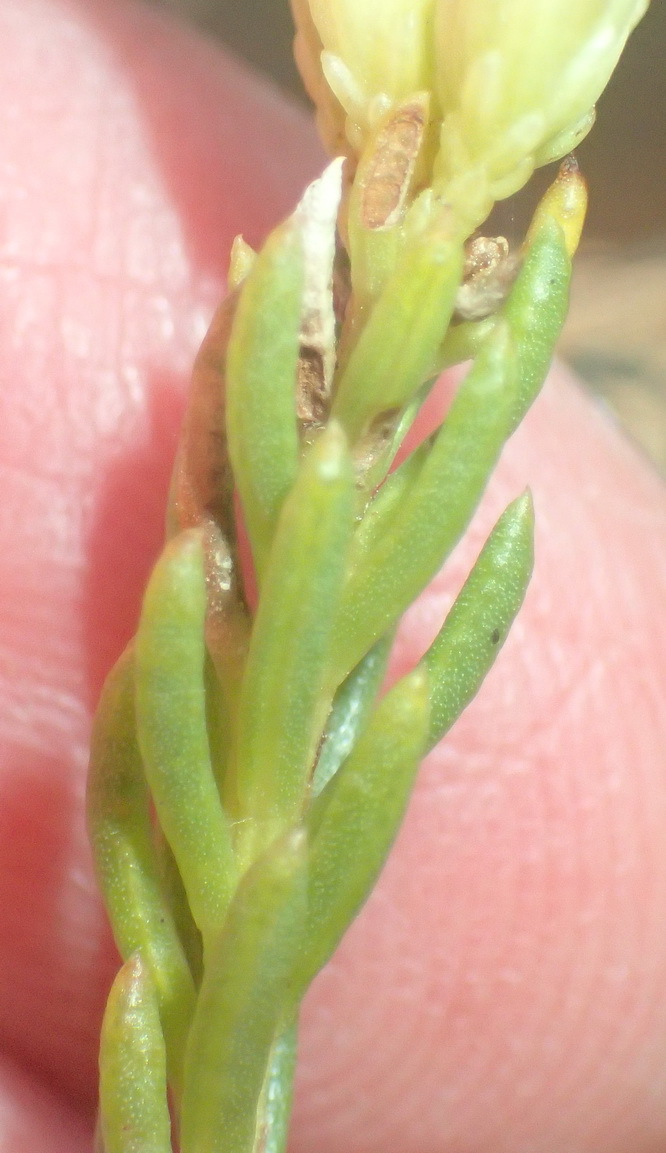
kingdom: Plantae
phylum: Tracheophyta
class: Magnoliopsida
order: Asterales
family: Asteraceae
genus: Pteronia
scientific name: Pteronia teretifolia
